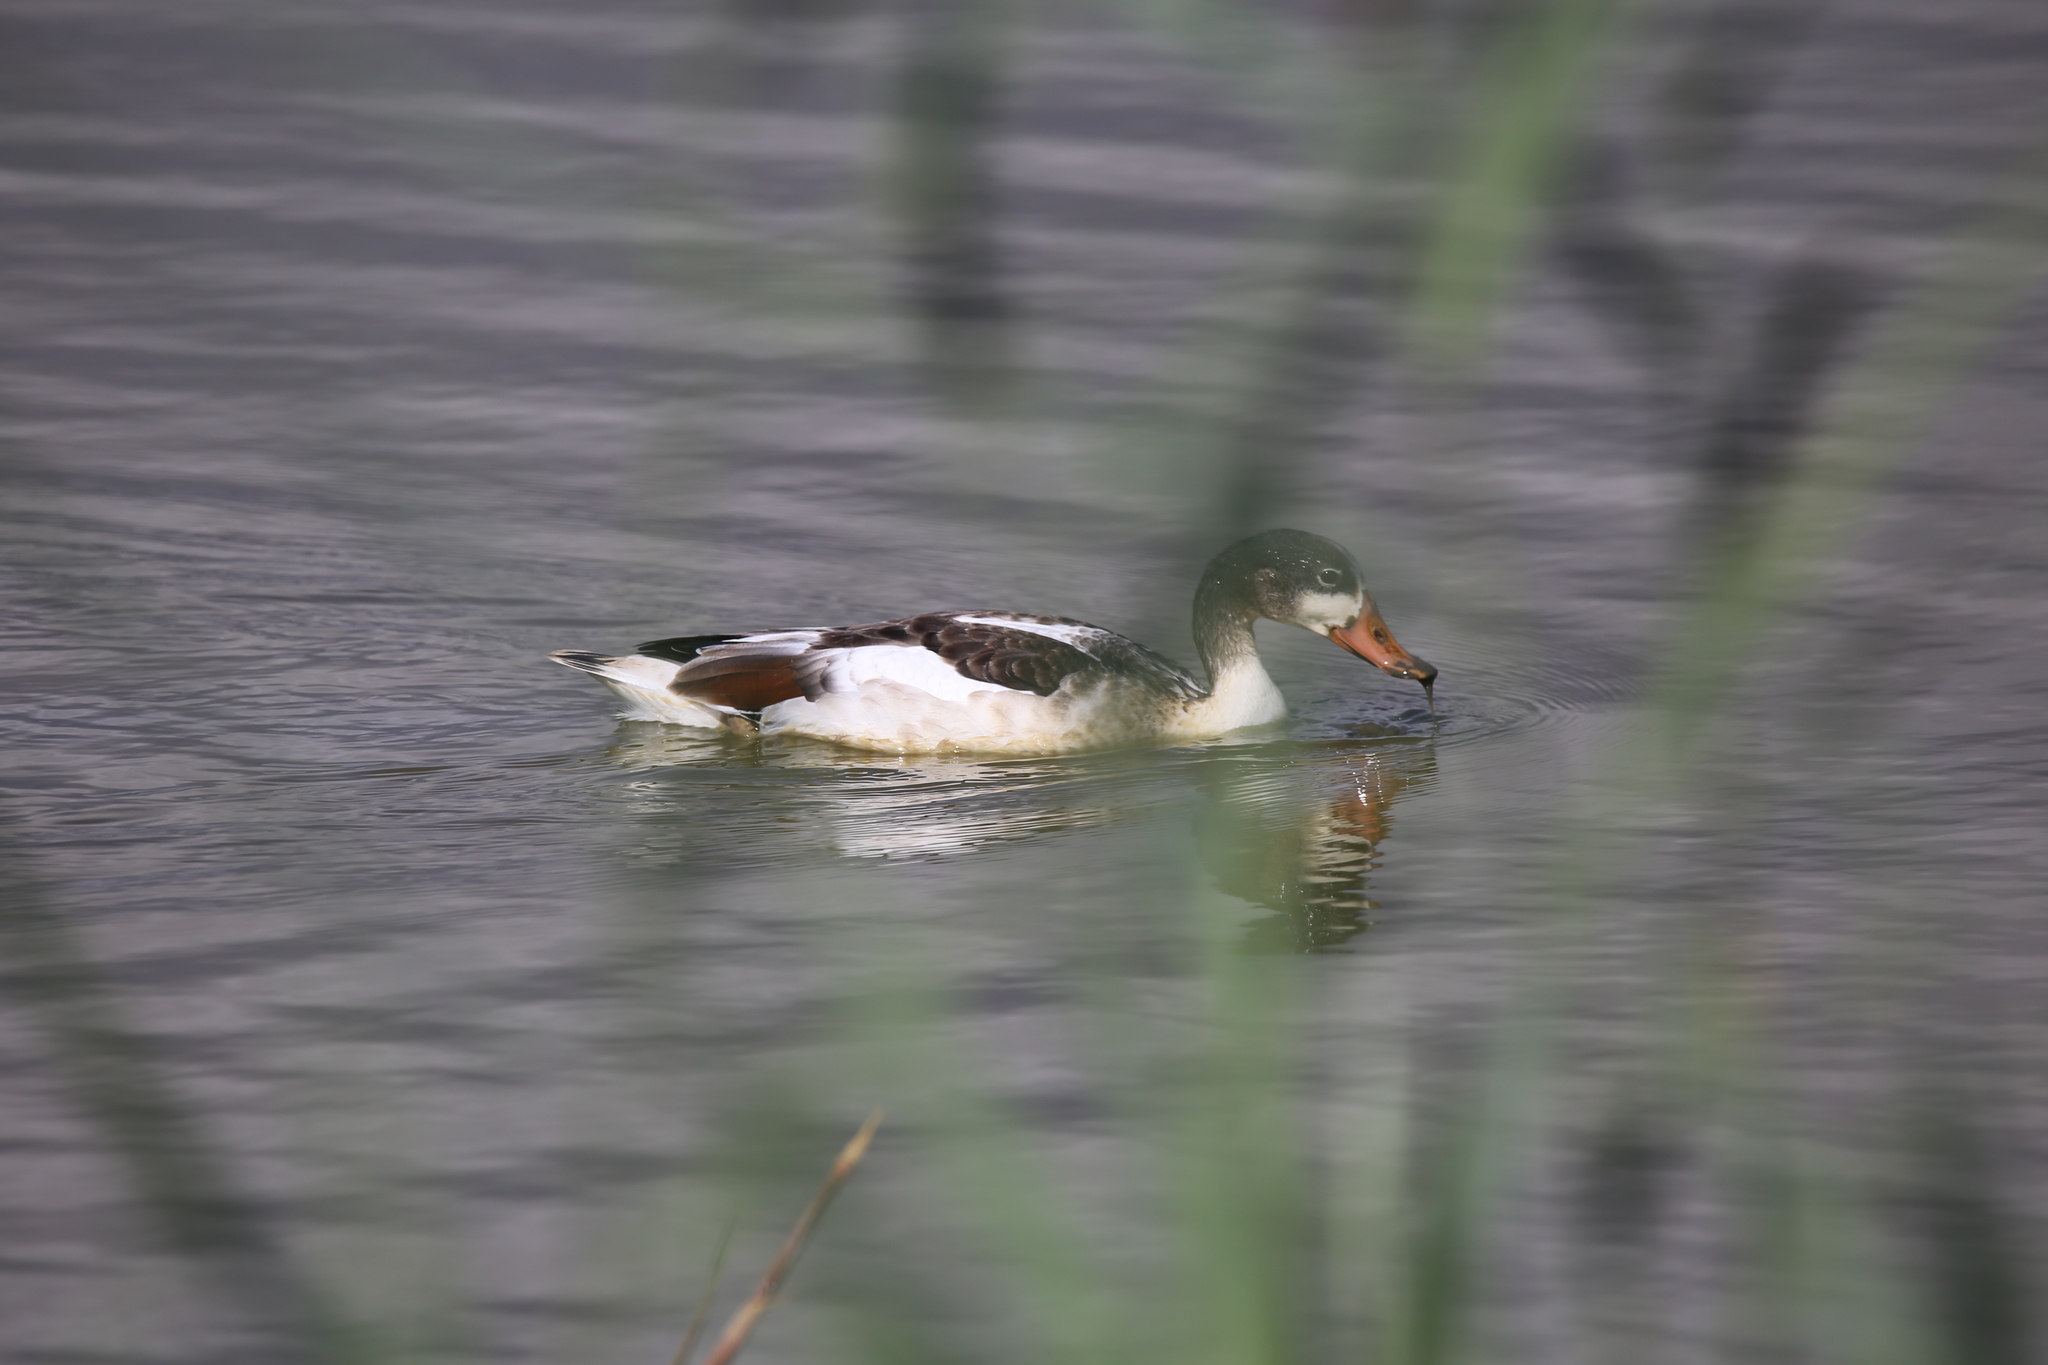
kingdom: Animalia
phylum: Chordata
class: Aves
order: Anseriformes
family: Anatidae
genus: Tadorna
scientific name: Tadorna tadorna
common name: Common shelduck
